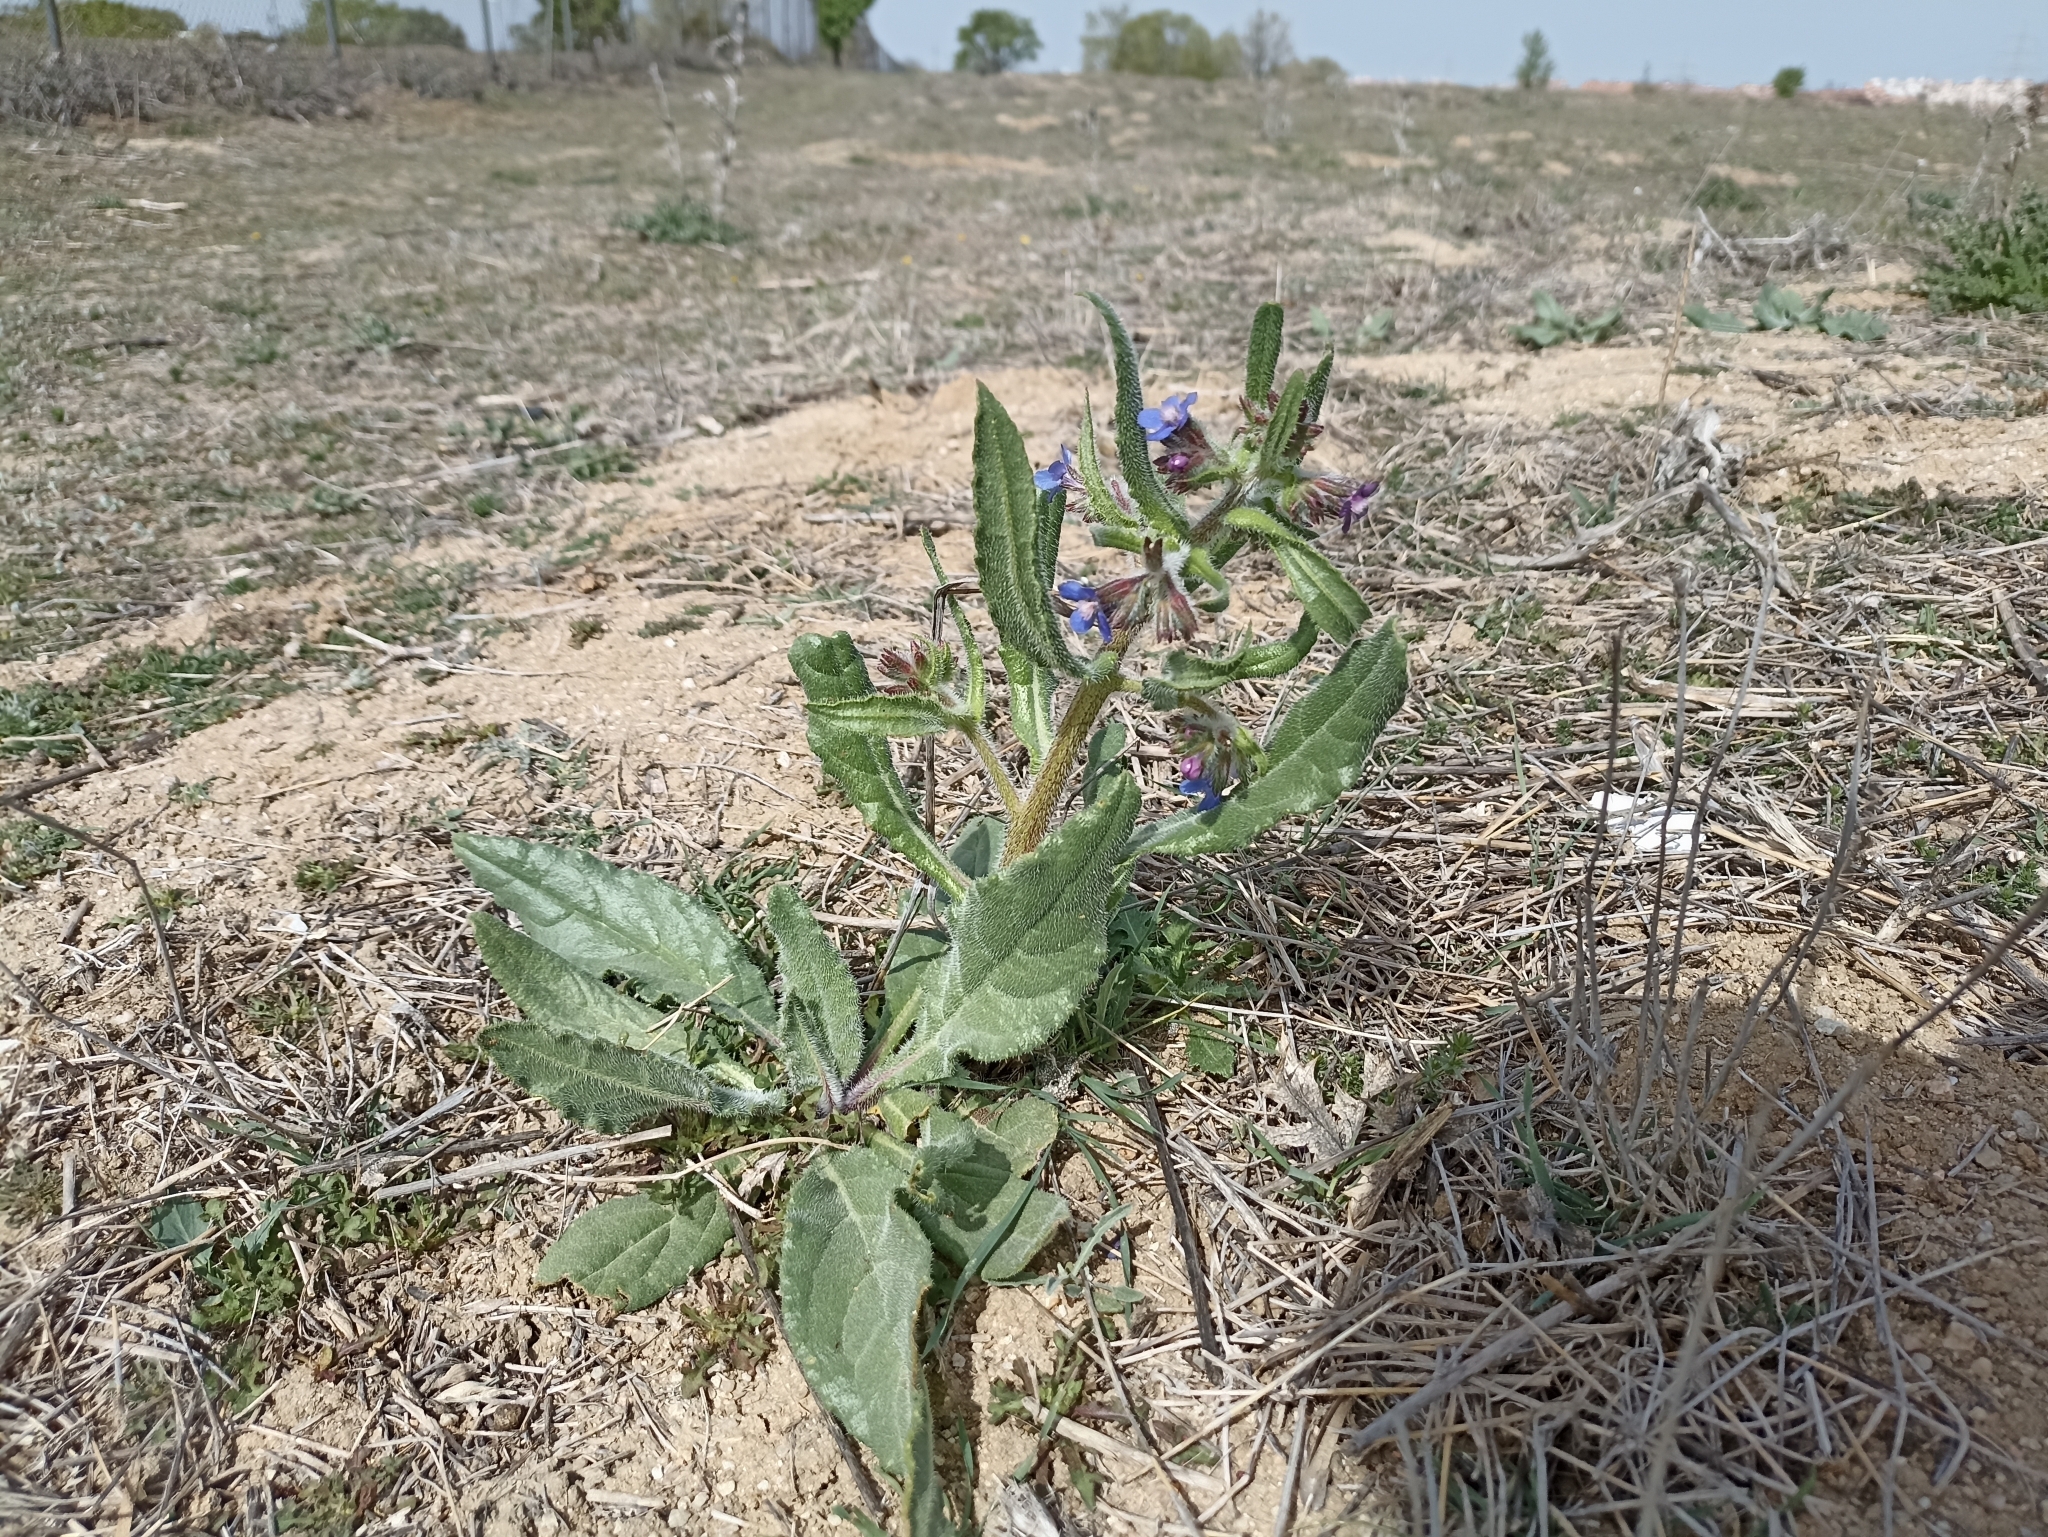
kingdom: Plantae
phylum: Tracheophyta
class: Magnoliopsida
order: Boraginales
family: Boraginaceae
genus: Anchusa
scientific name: Anchusa azurea
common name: Garden anchusa
